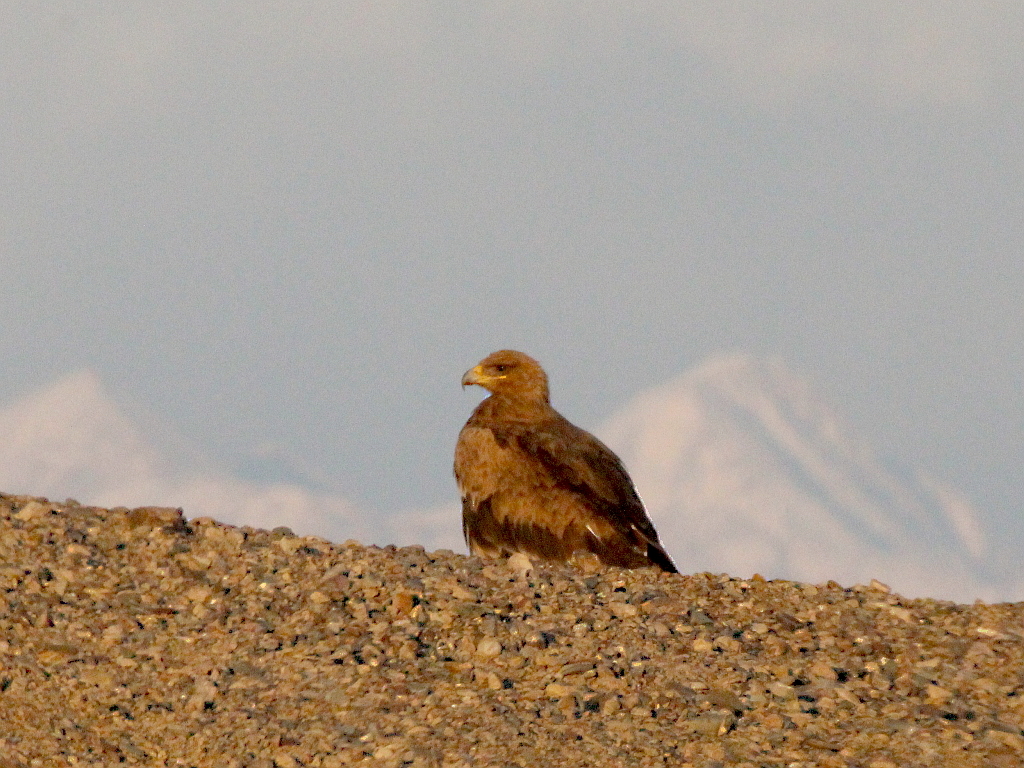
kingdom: Animalia
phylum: Chordata
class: Aves
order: Accipitriformes
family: Accipitridae
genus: Aquila
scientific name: Aquila nipalensis
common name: Steppe eagle
